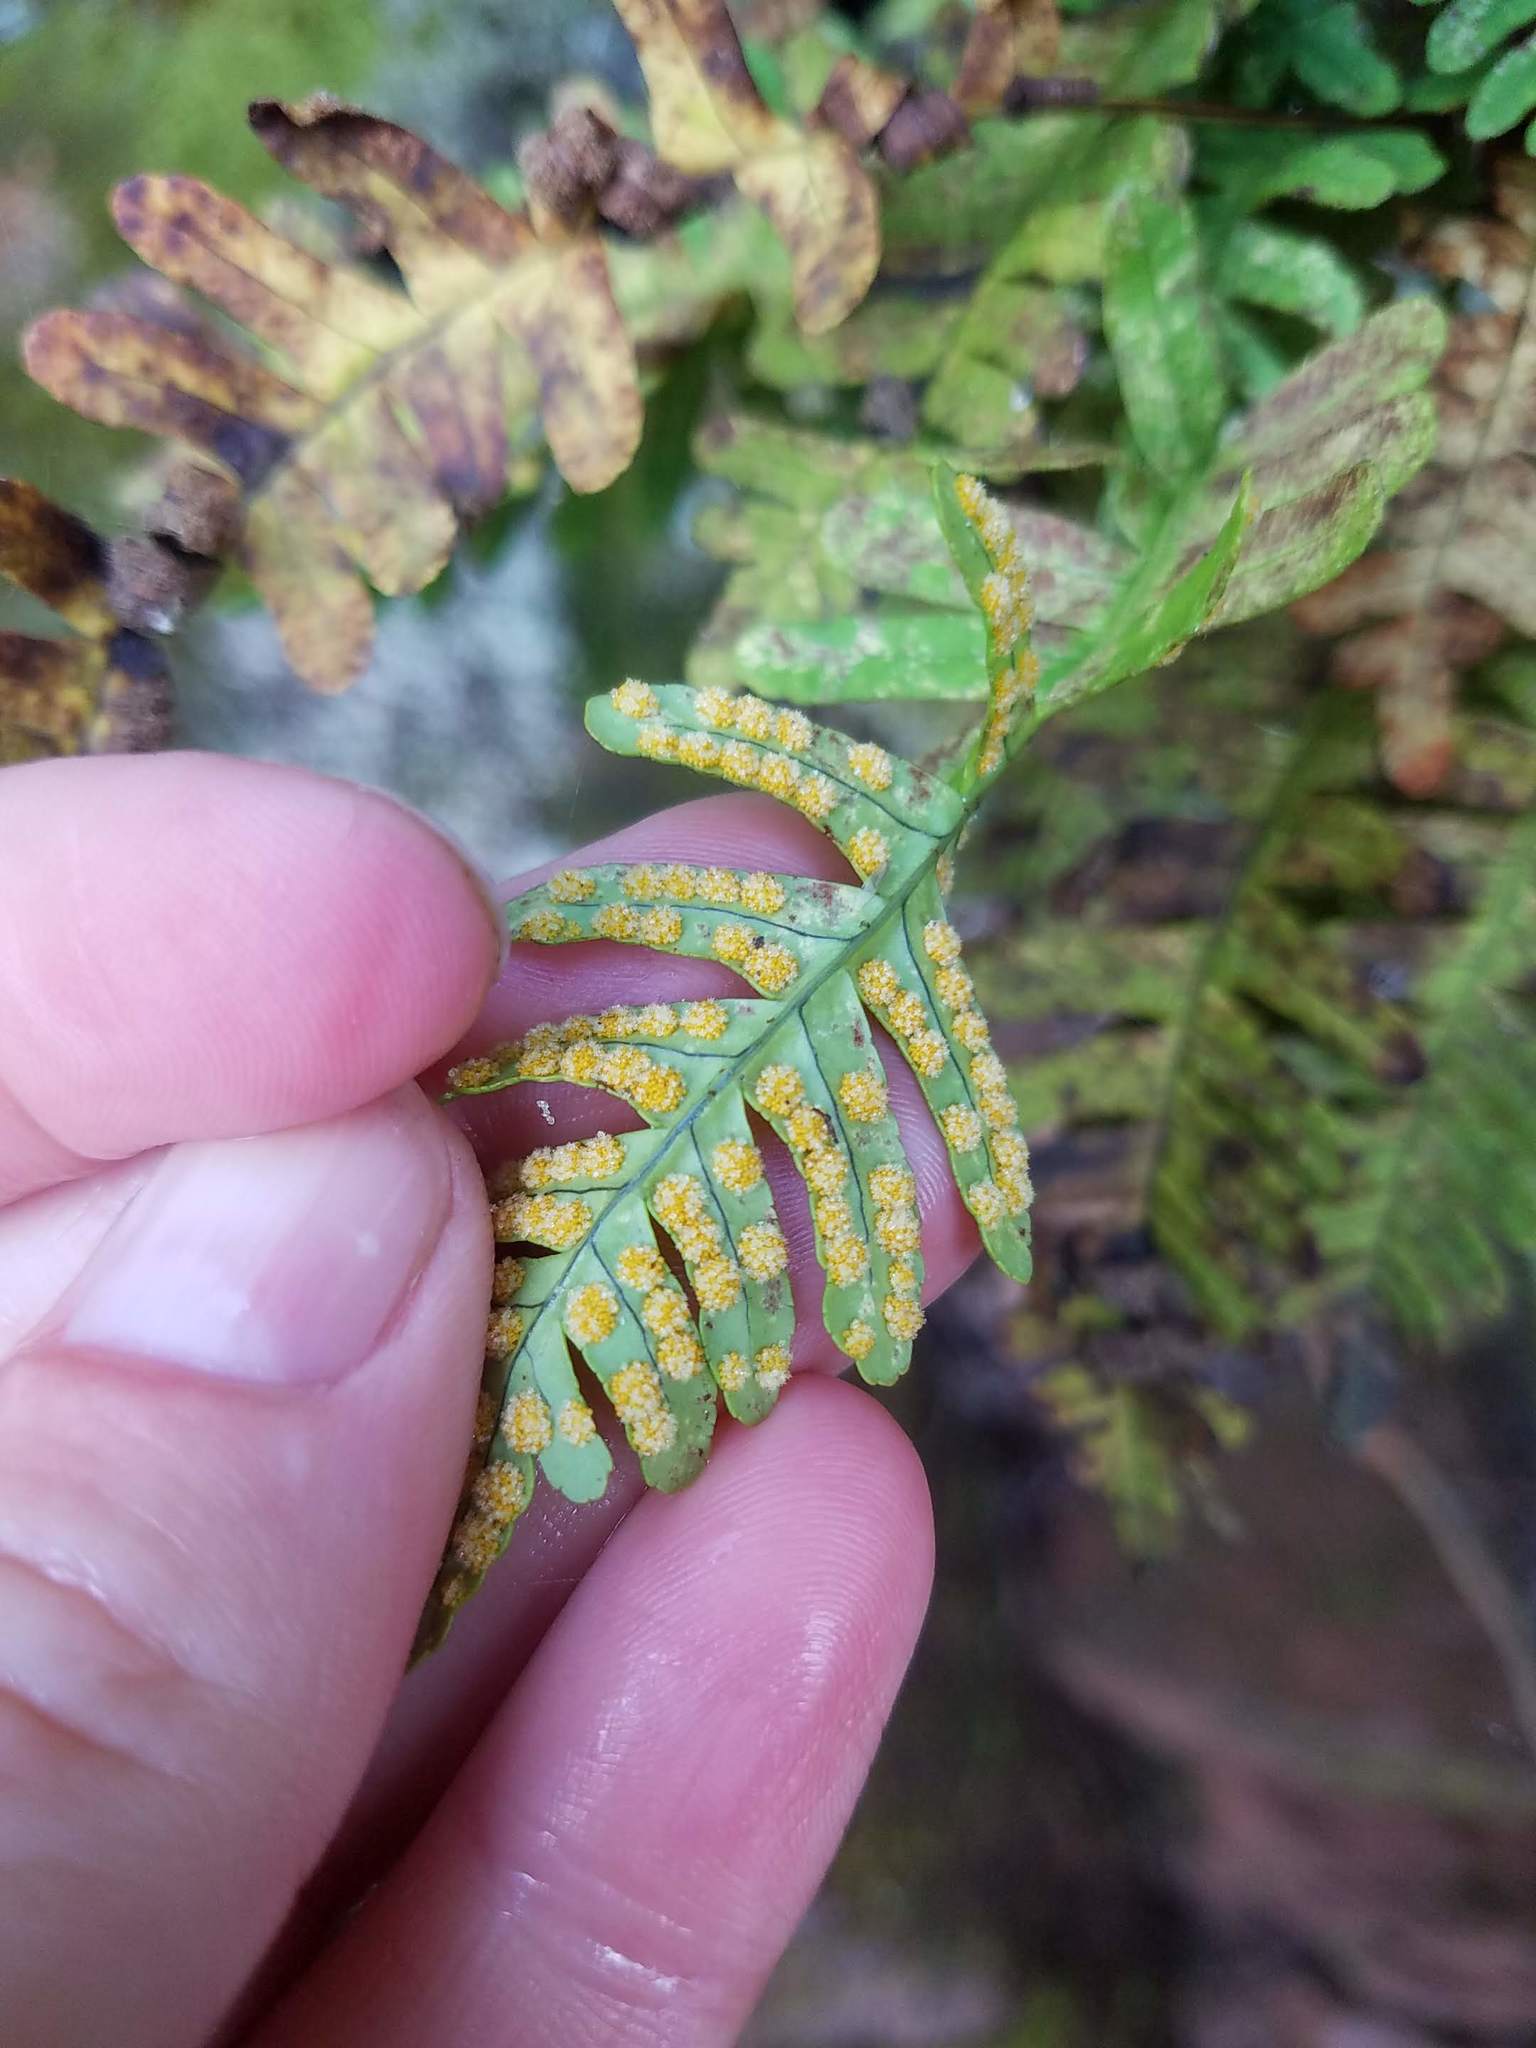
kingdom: Plantae
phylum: Tracheophyta
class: Polypodiopsida
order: Polypodiales
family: Polypodiaceae
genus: Polypodium
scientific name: Polypodium virginianum
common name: American wall fern
